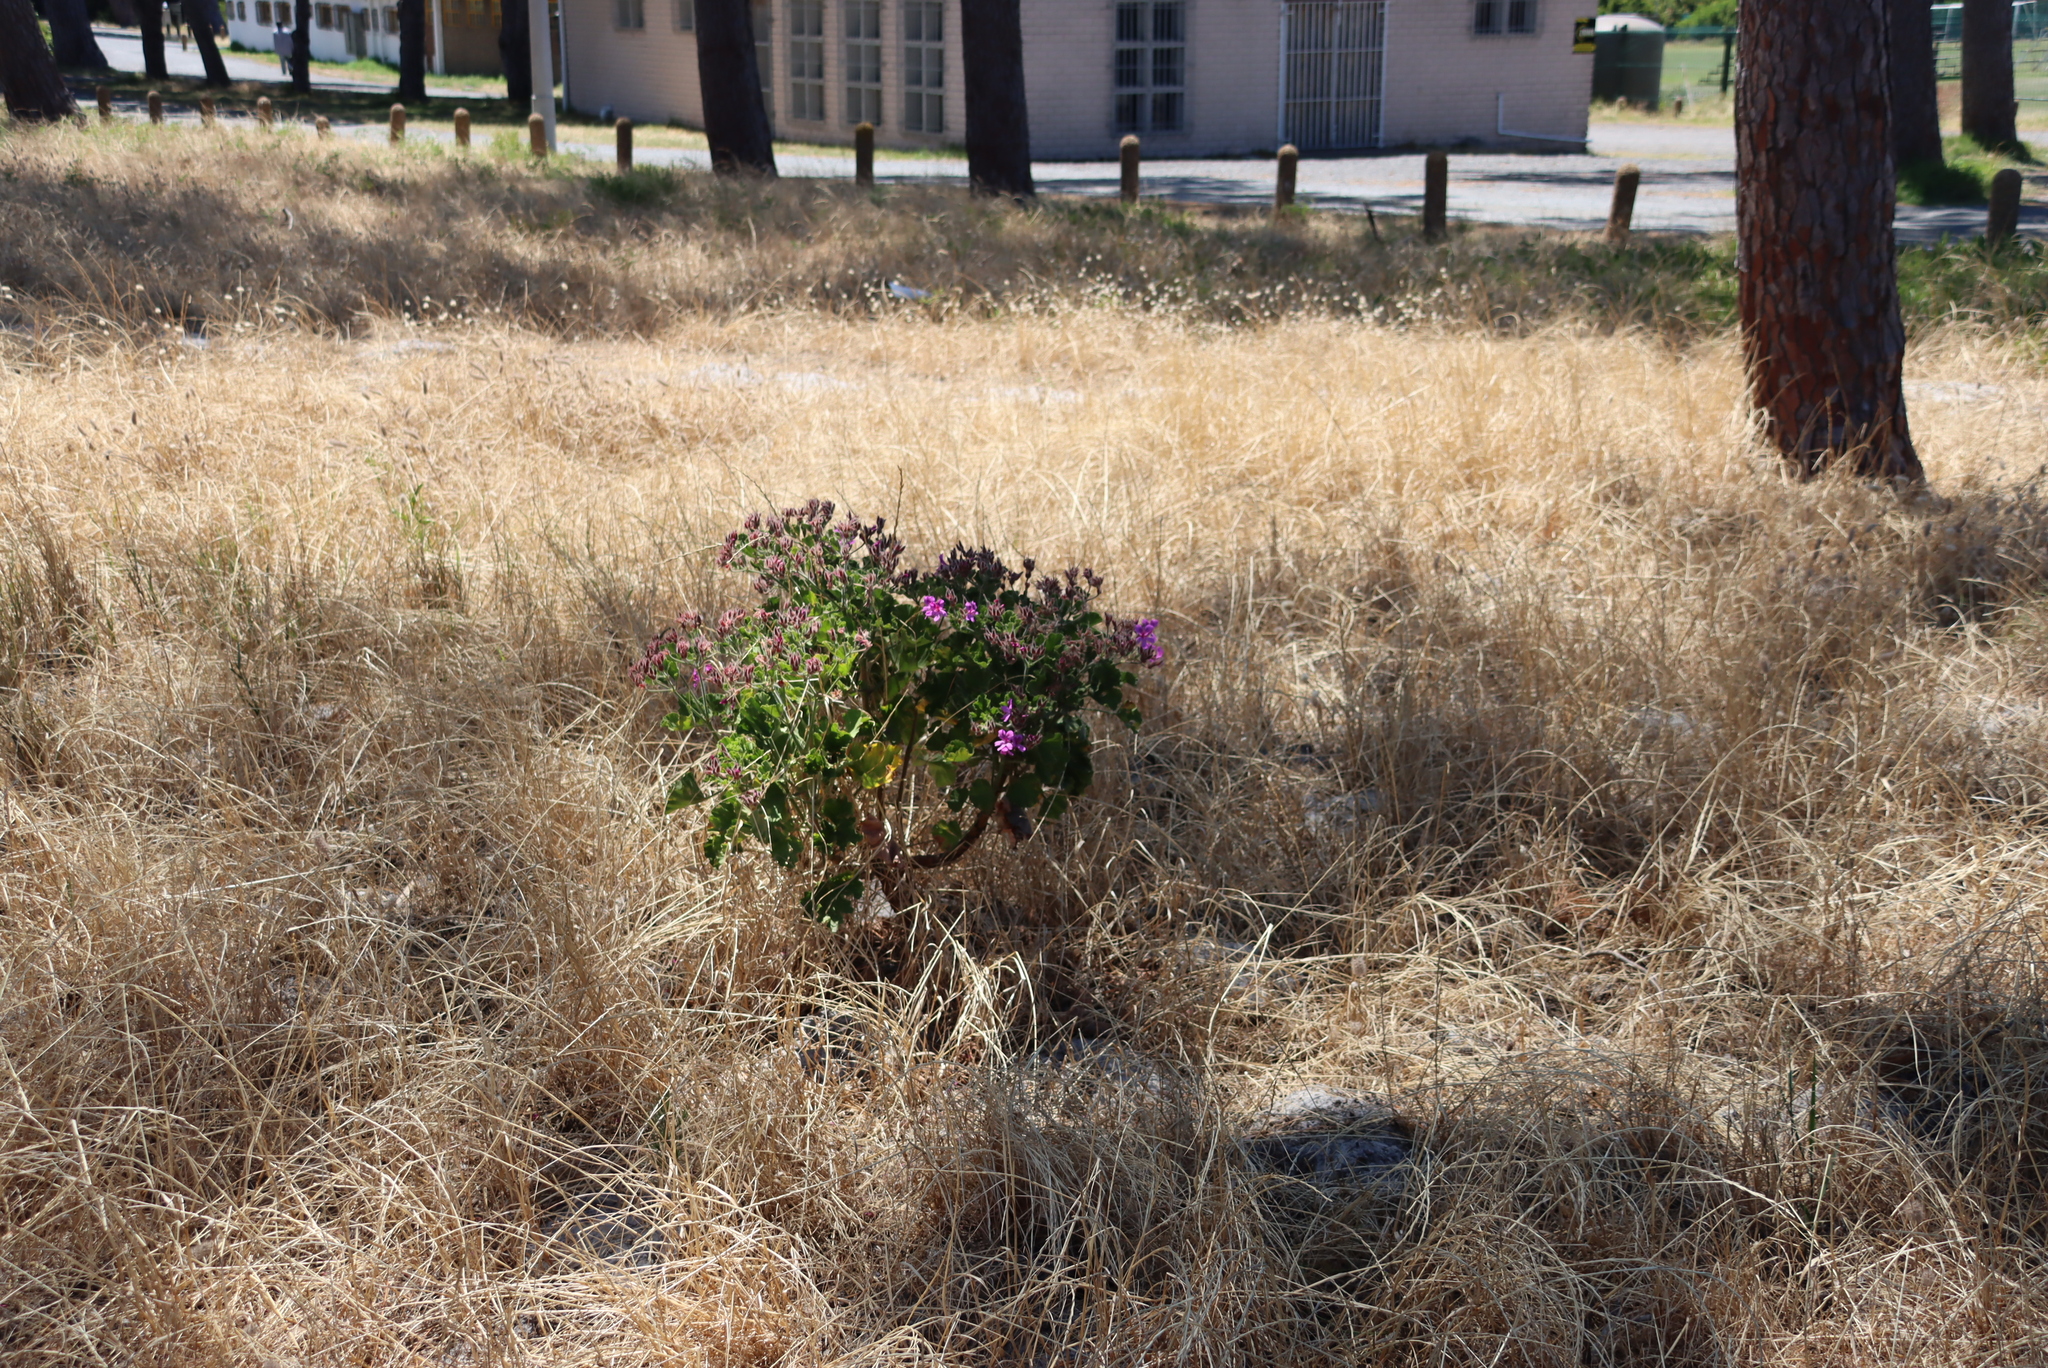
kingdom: Plantae
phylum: Tracheophyta
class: Magnoliopsida
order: Geraniales
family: Geraniaceae
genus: Pelargonium
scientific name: Pelargonium cucullatum
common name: Tree pelargonium
